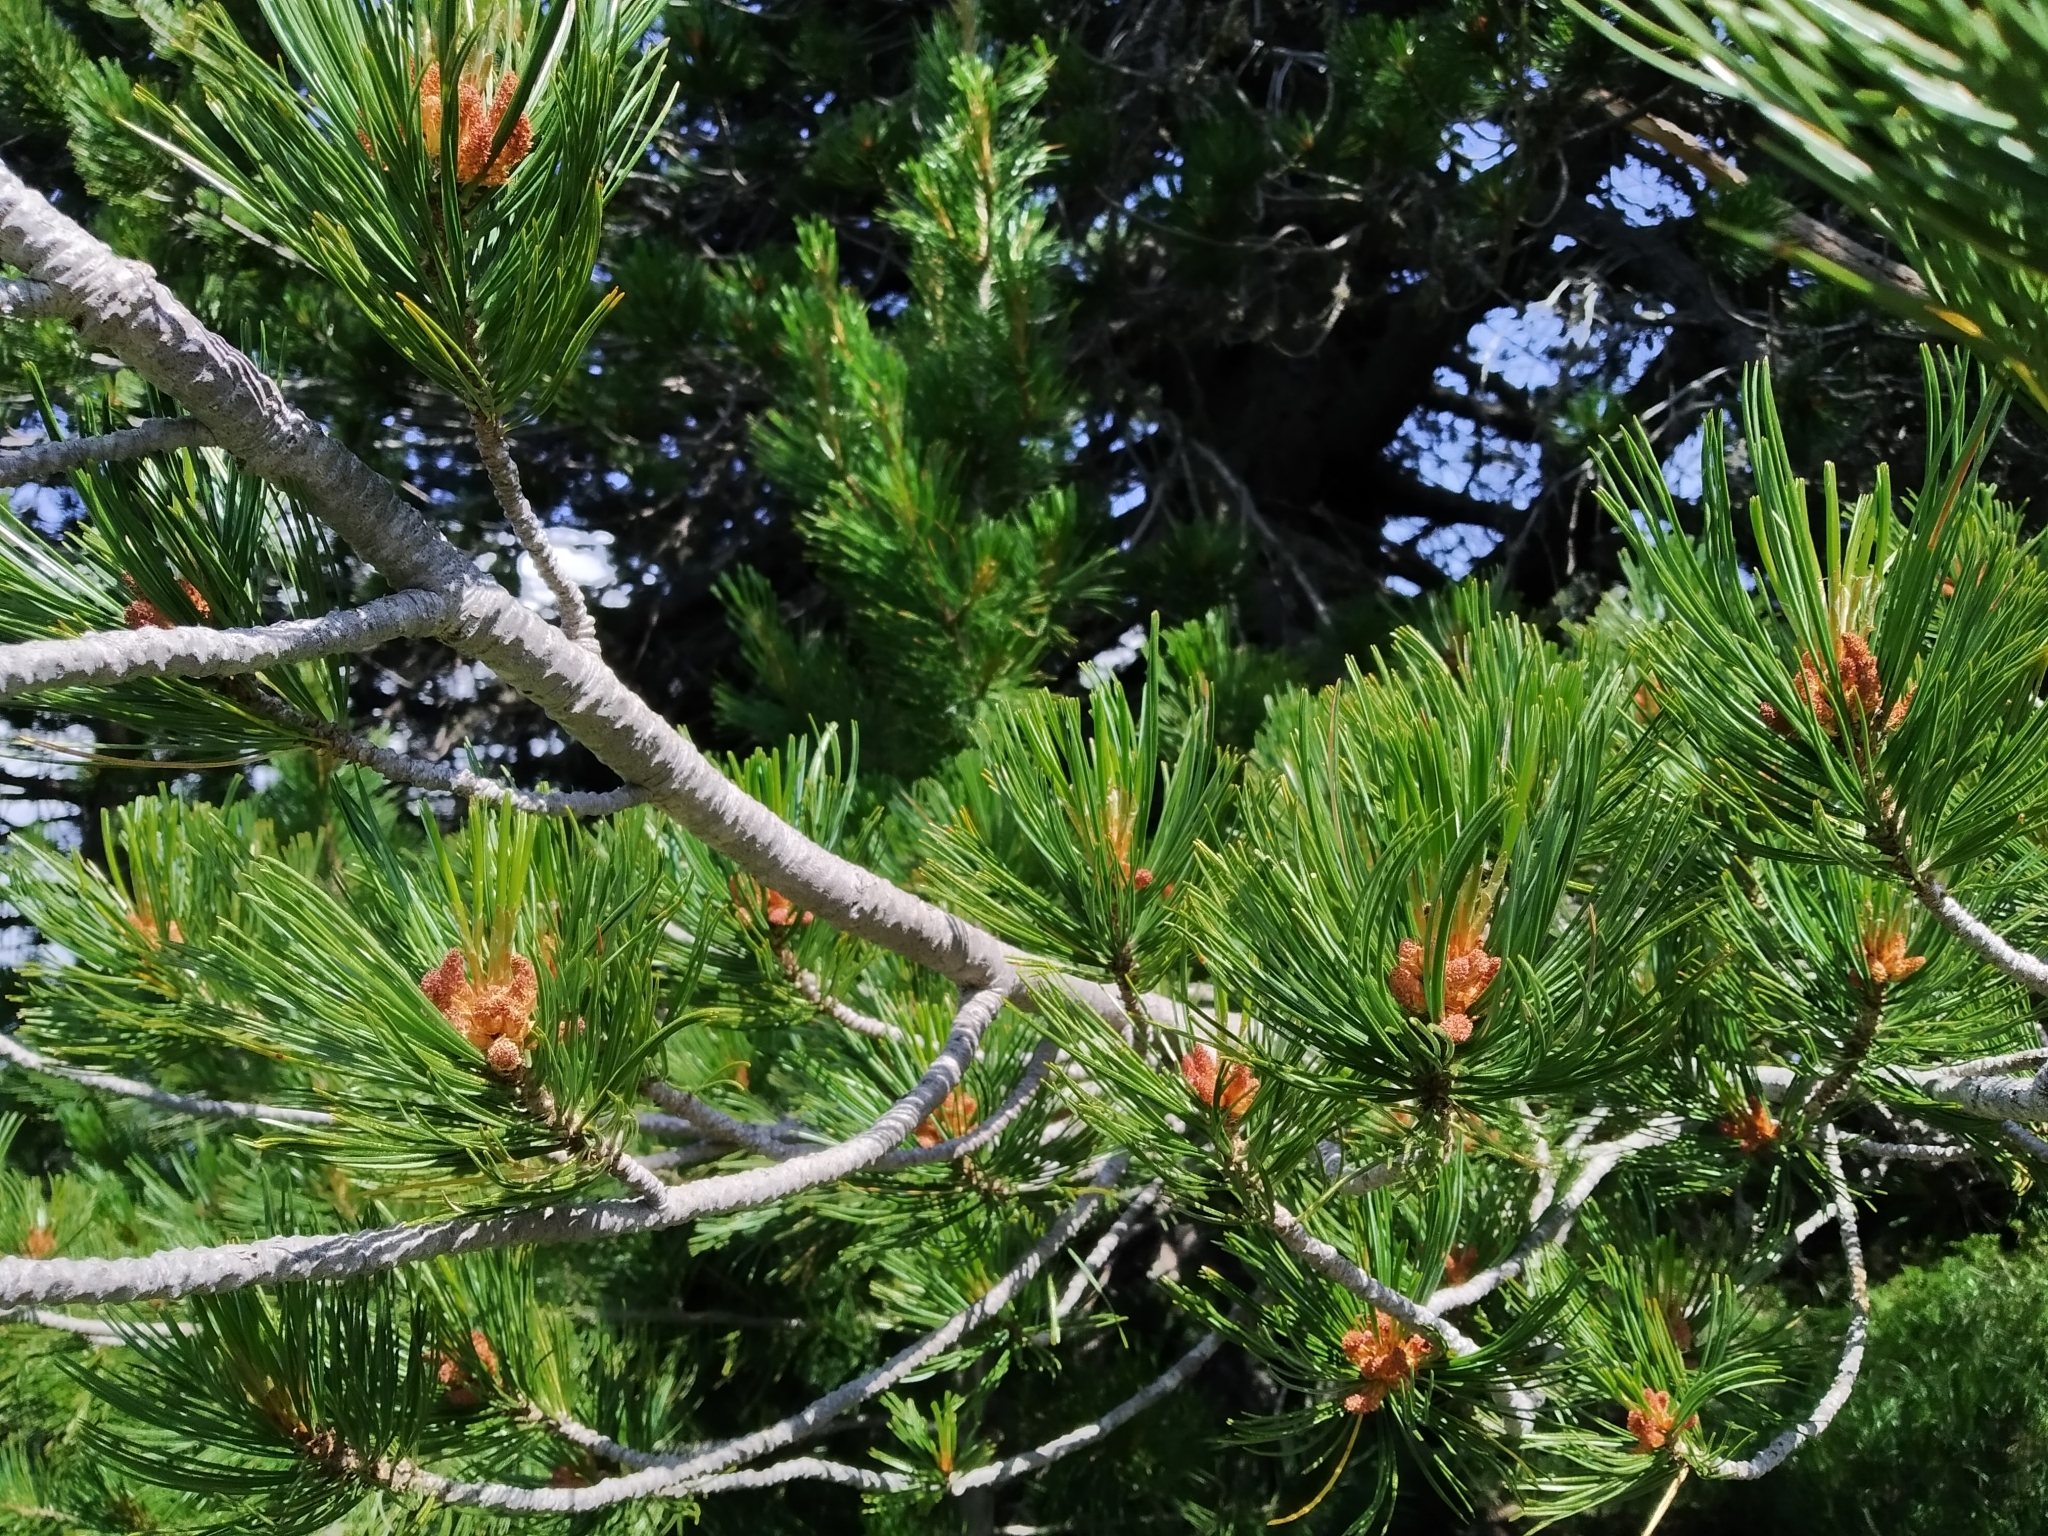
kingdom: Plantae
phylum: Tracheophyta
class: Pinopsida
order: Pinales
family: Pinaceae
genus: Pinus
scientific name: Pinus cembra
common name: Arolla pine
